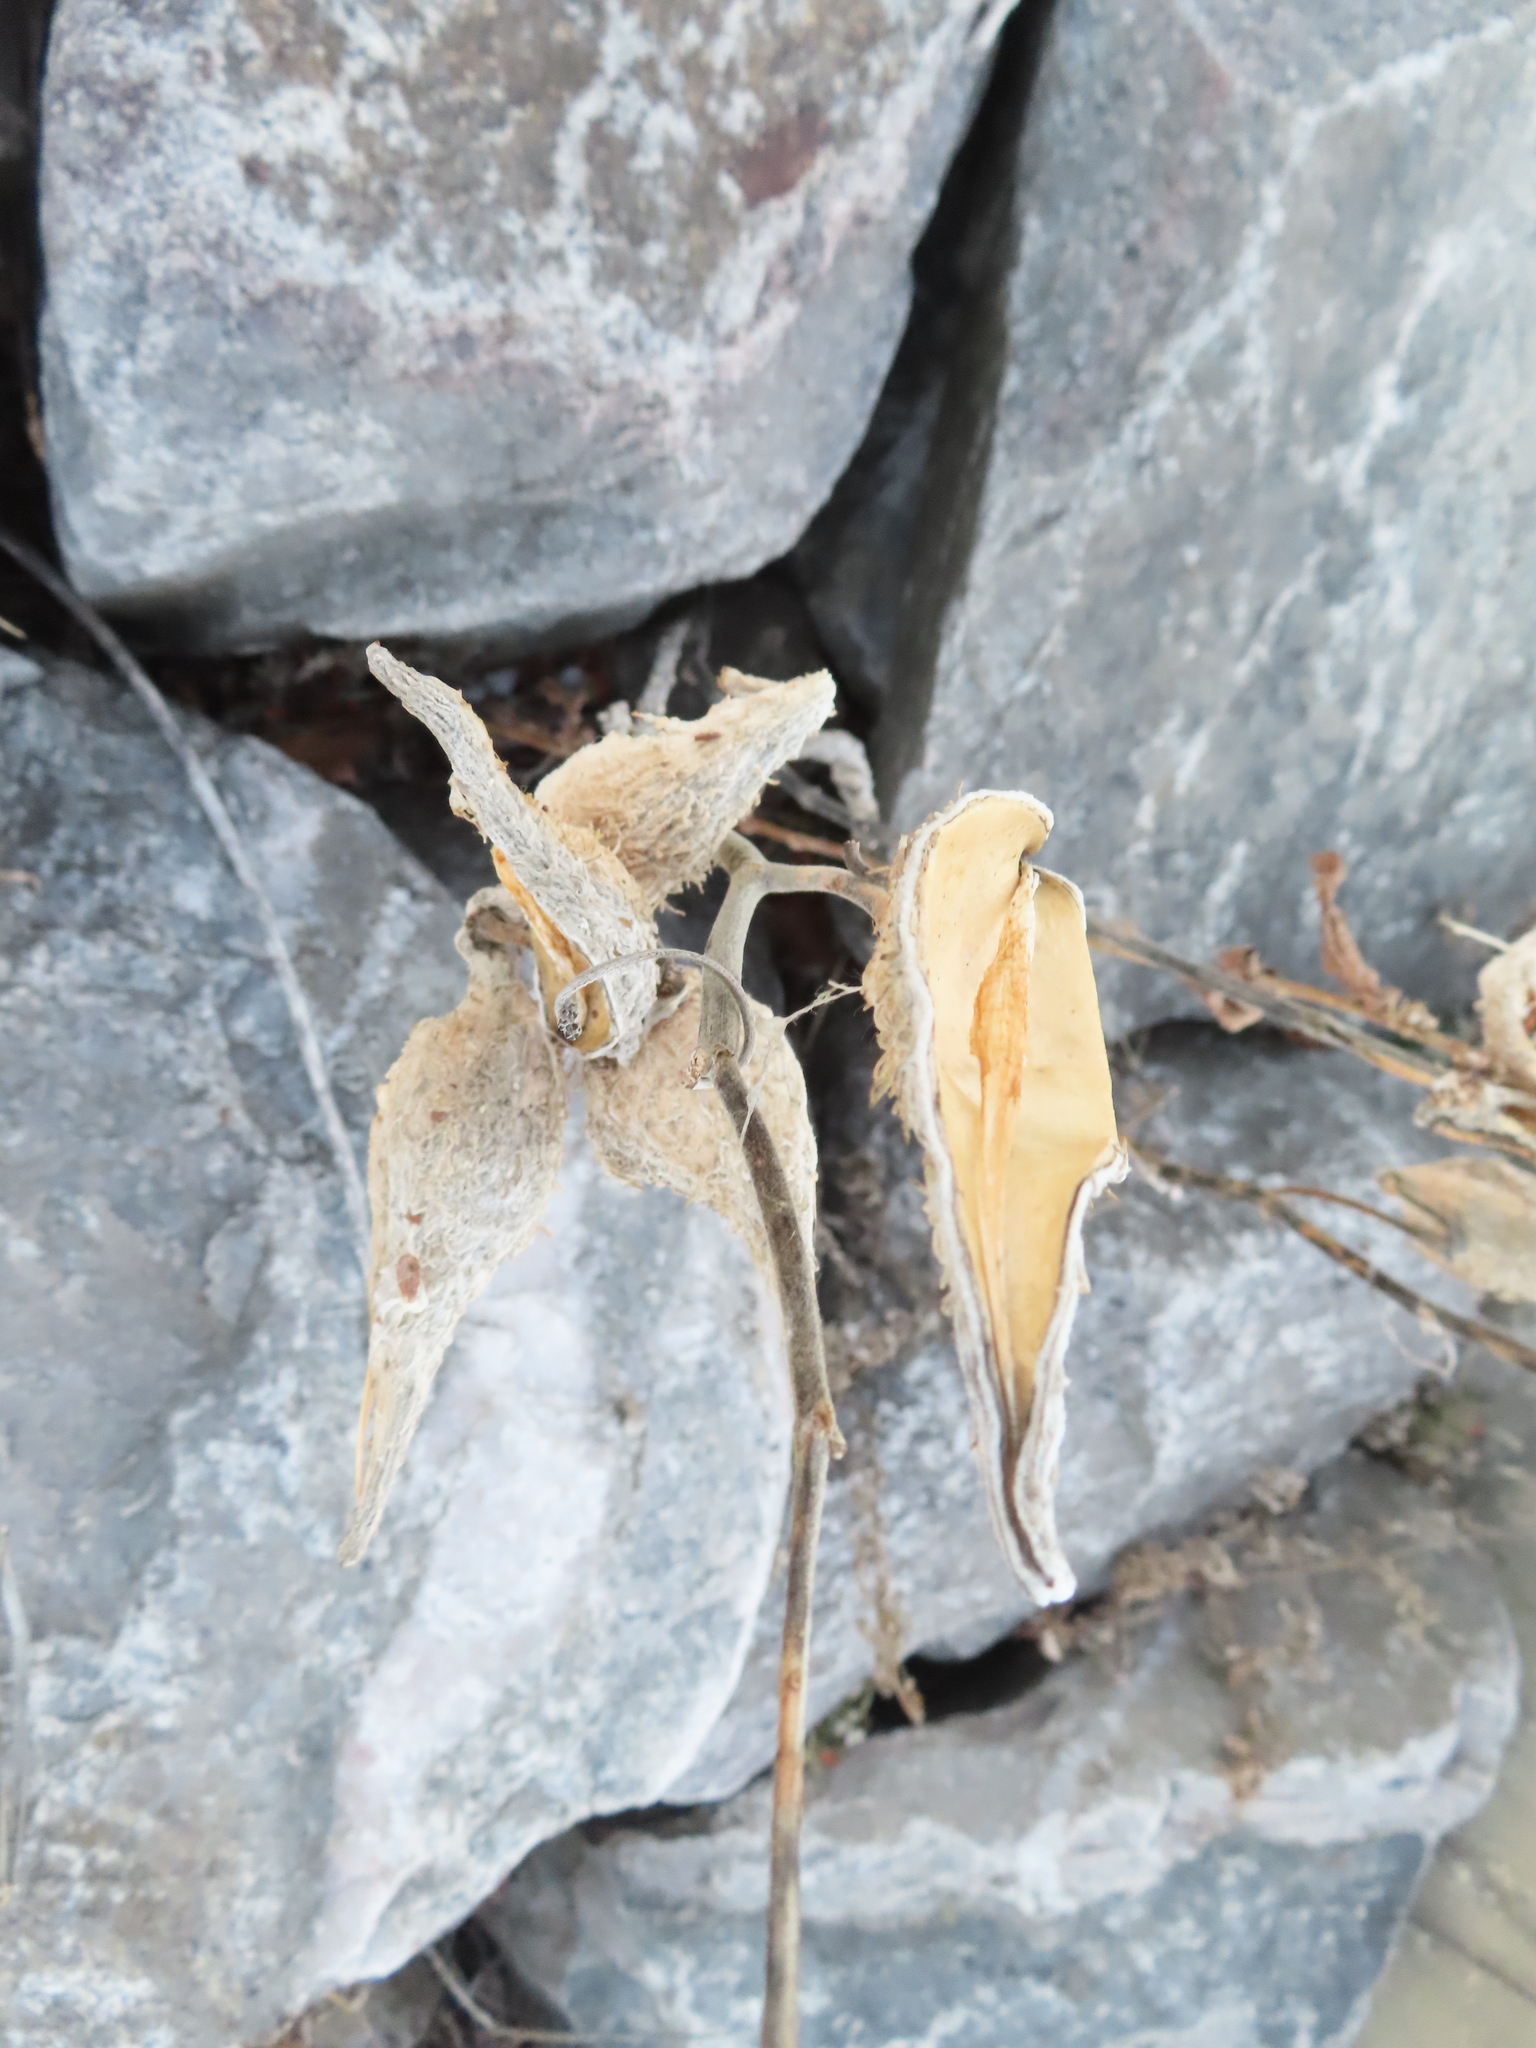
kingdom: Plantae
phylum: Tracheophyta
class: Magnoliopsida
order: Gentianales
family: Apocynaceae
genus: Asclepias
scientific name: Asclepias syriaca
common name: Common milkweed
